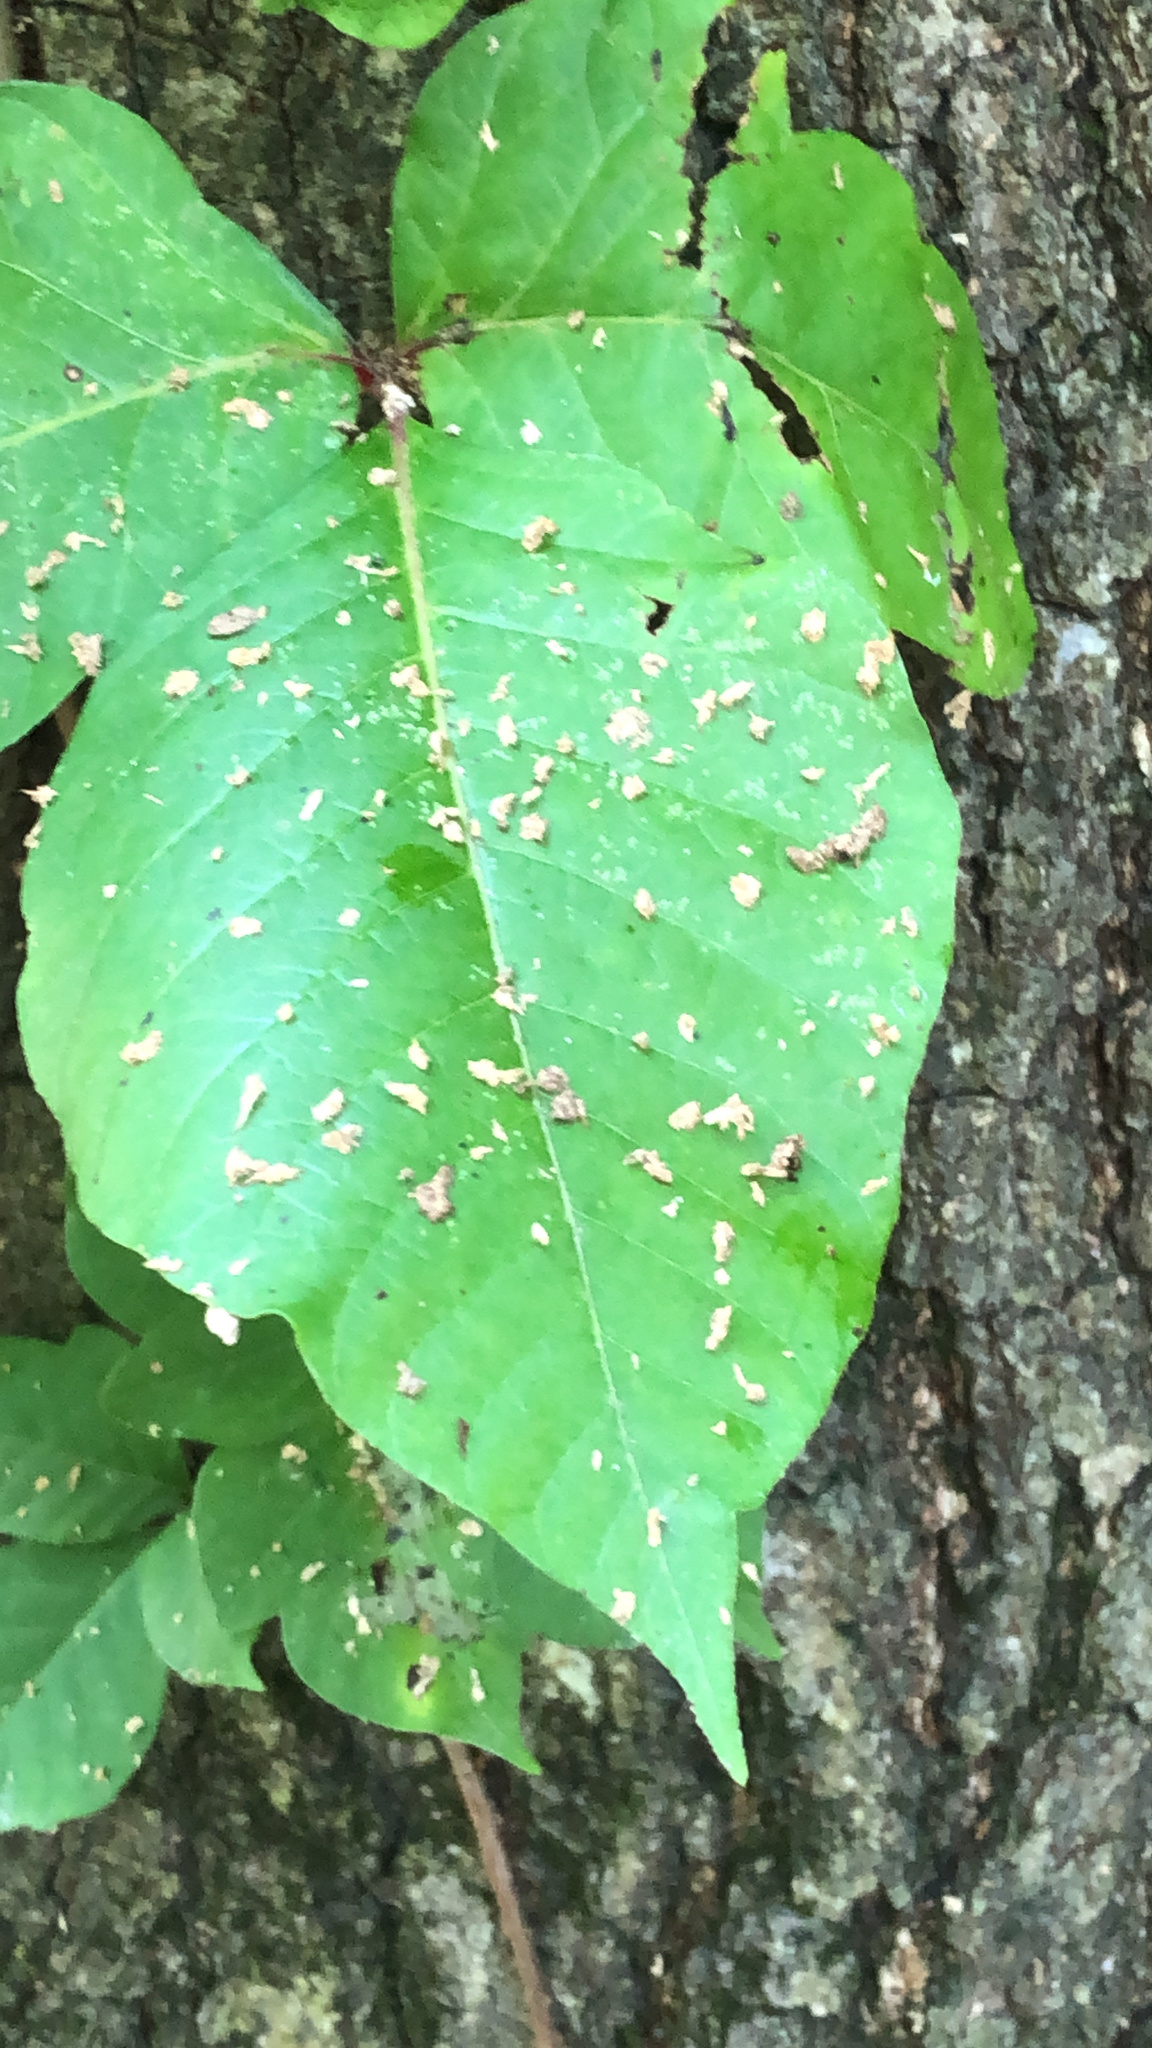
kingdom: Animalia
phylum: Arthropoda
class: Arachnida
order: Trombidiformes
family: Eriophyidae
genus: Aculops
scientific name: Aculops
